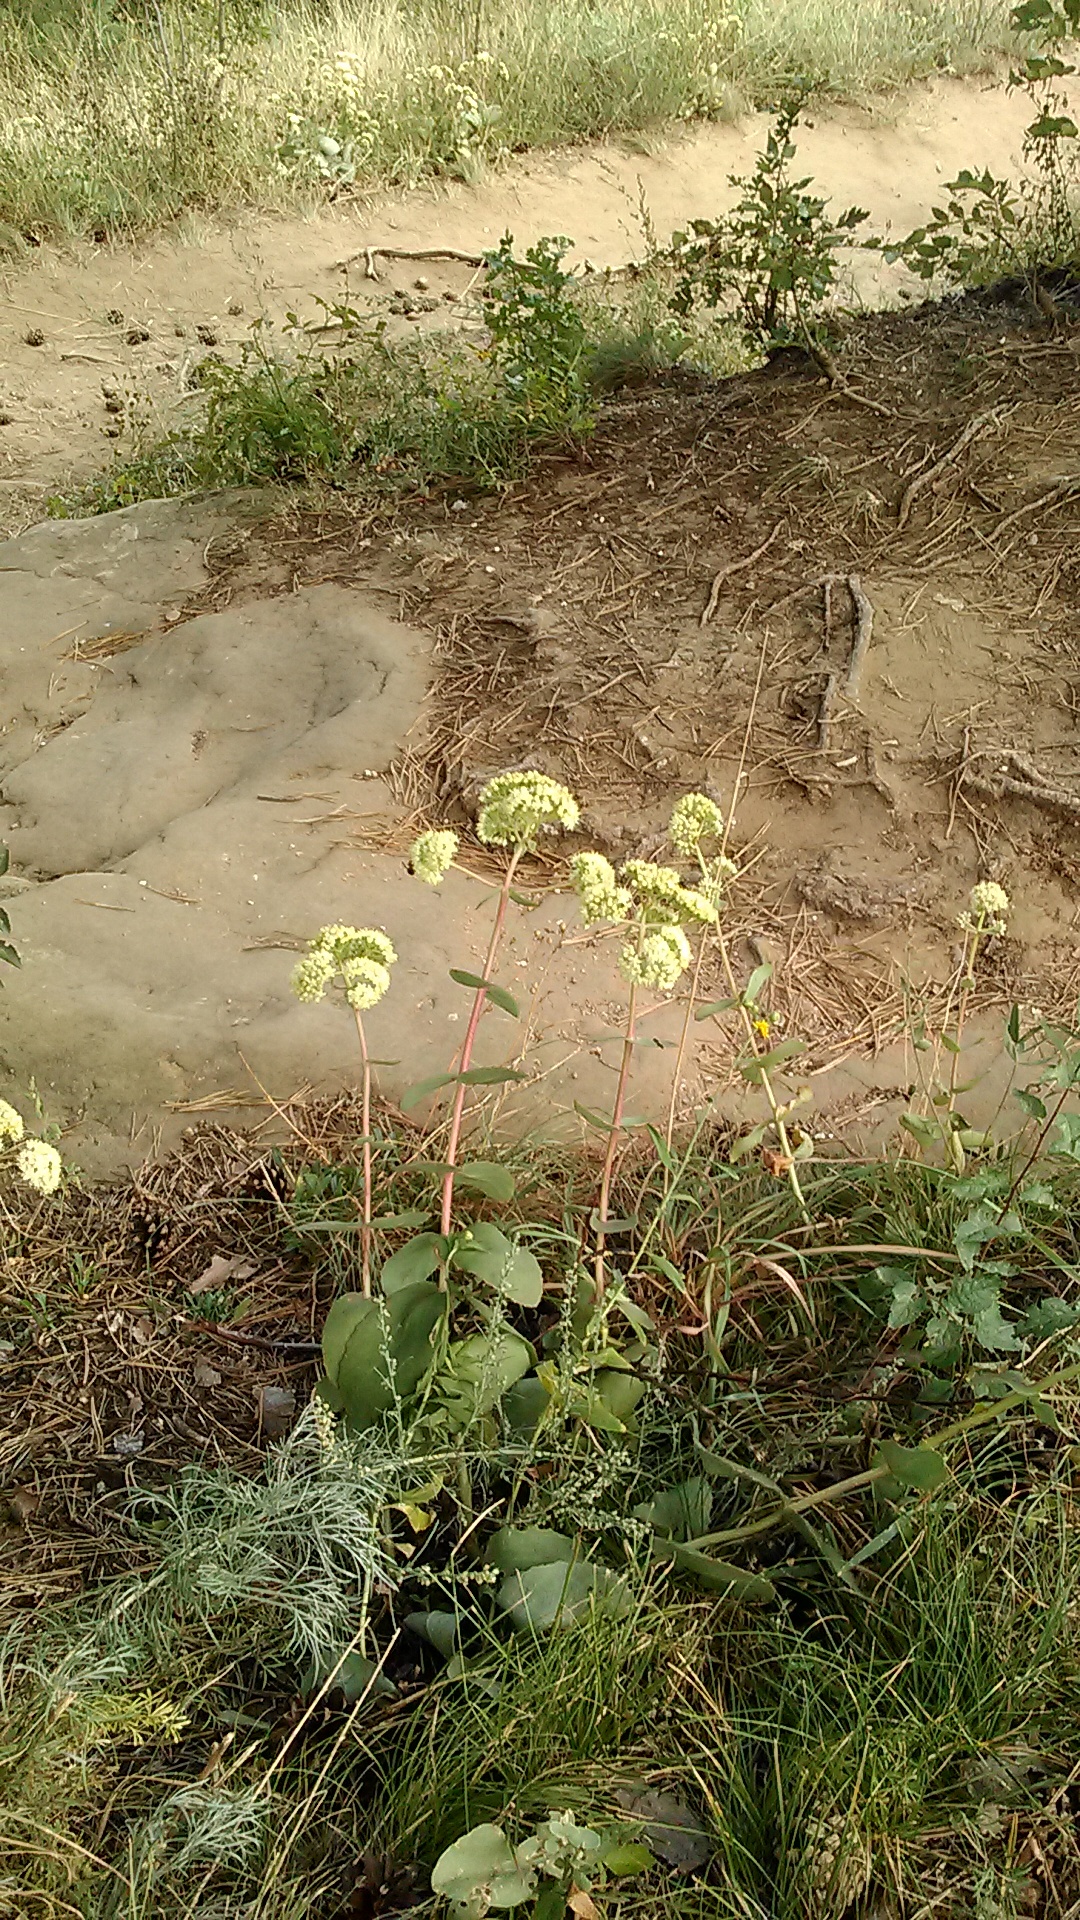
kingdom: Plantae
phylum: Tracheophyta
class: Magnoliopsida
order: Saxifragales
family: Crassulaceae
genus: Hylotelephium
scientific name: Hylotelephium maximum
